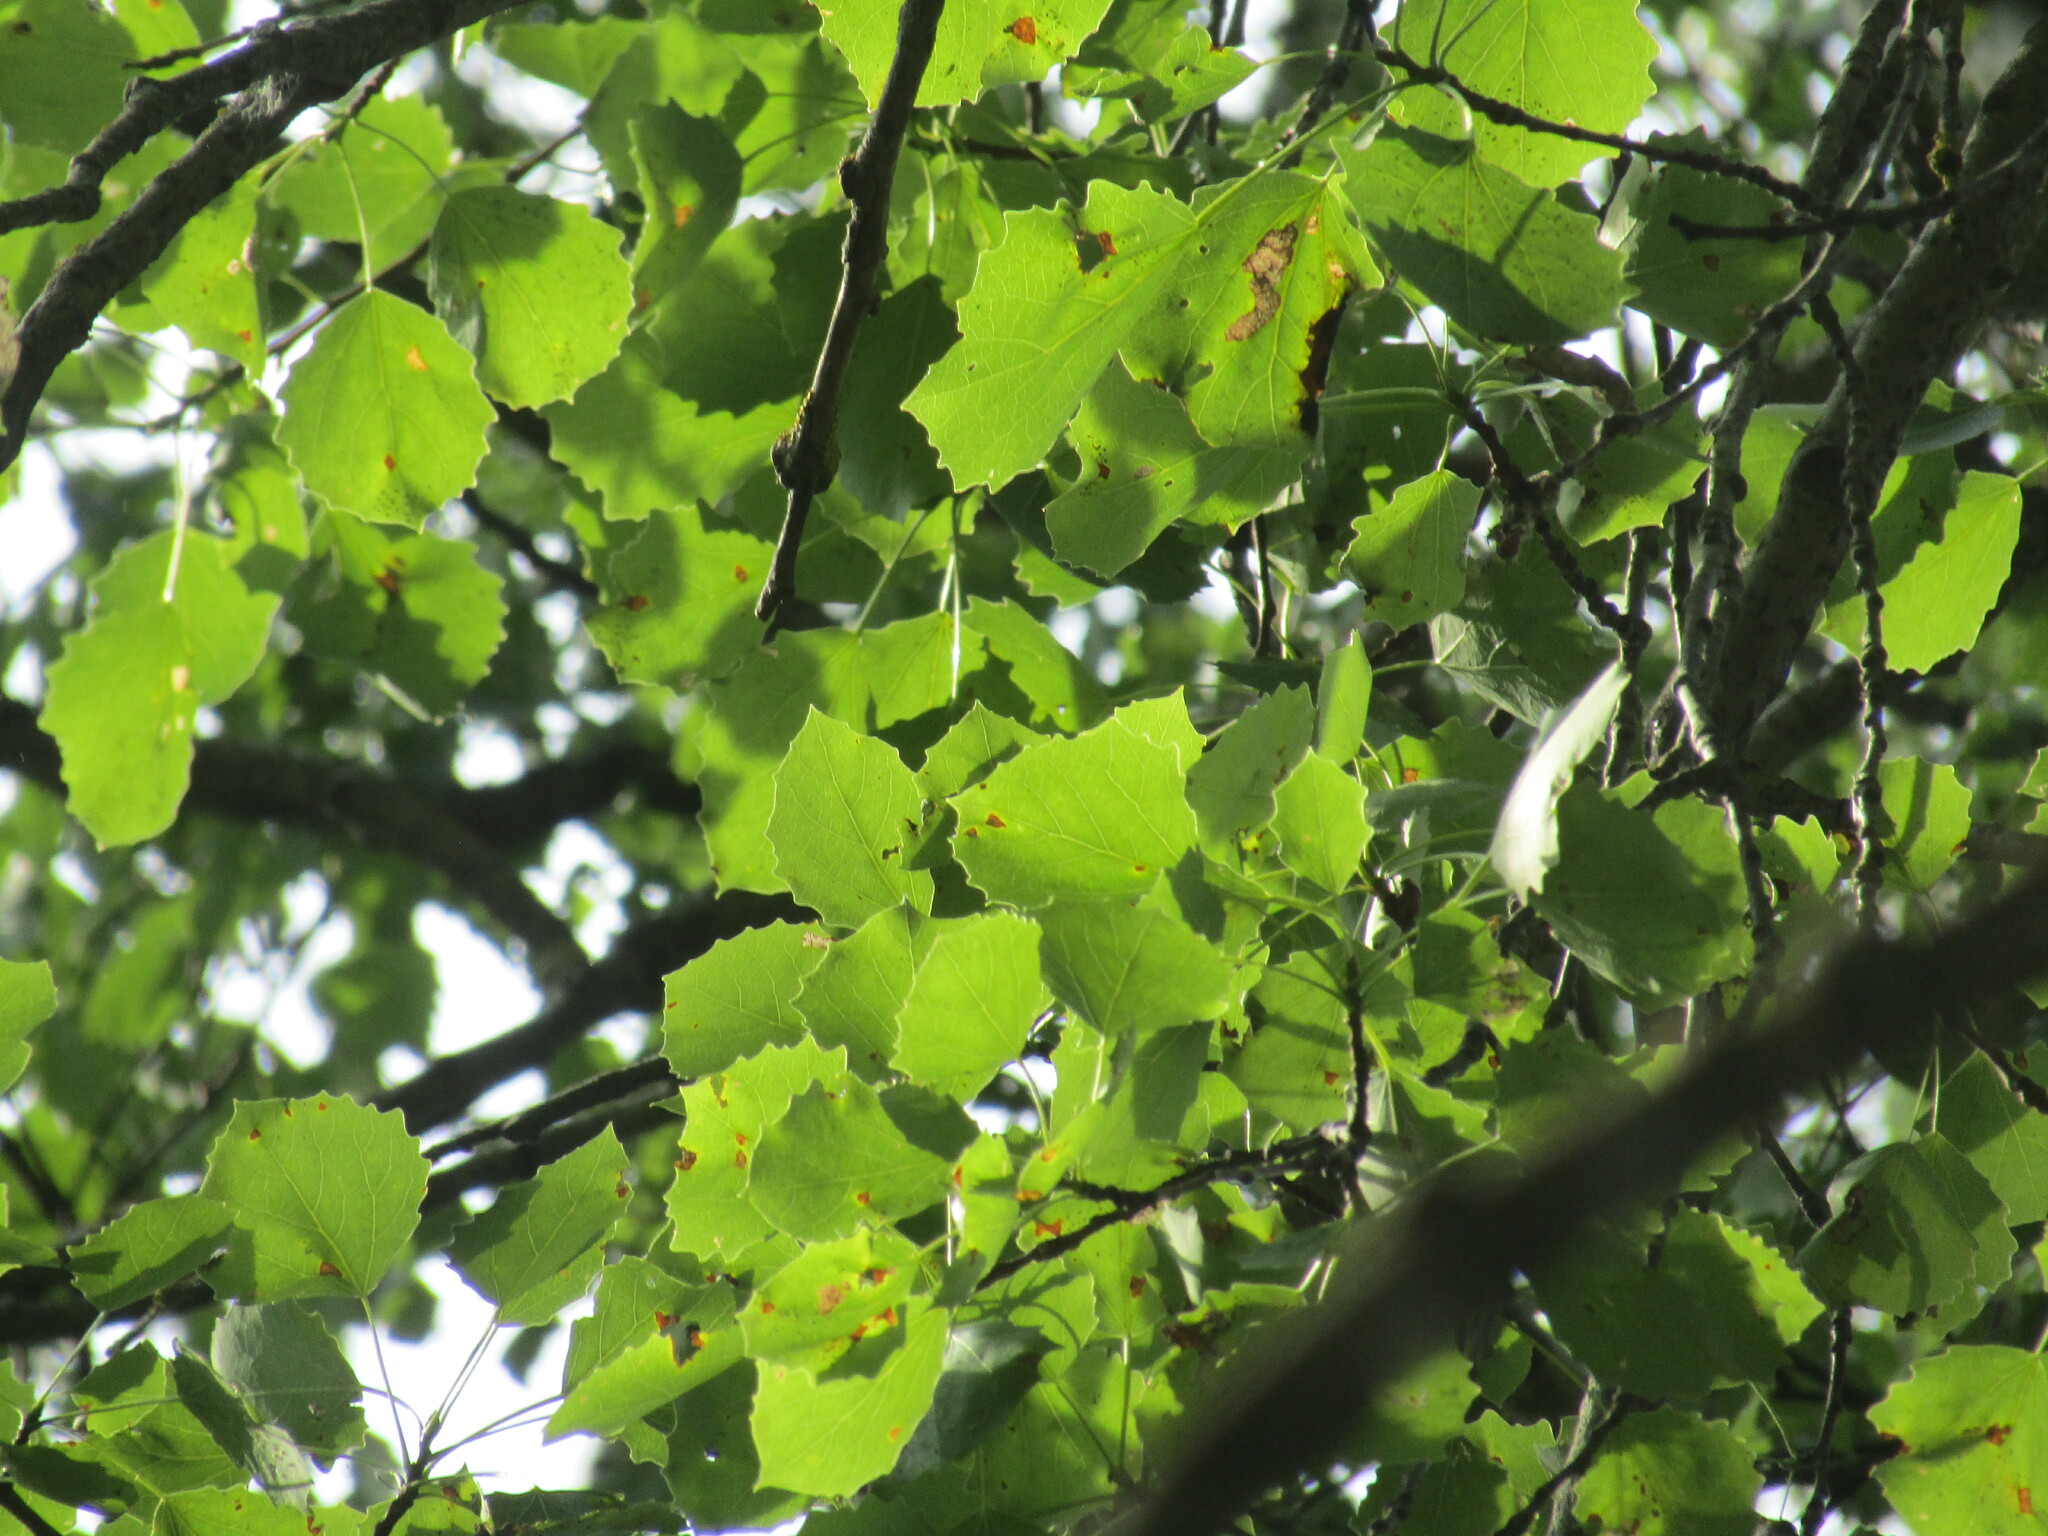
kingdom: Plantae
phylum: Tracheophyta
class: Magnoliopsida
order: Malpighiales
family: Salicaceae
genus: Populus
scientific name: Populus tremula
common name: European aspen
